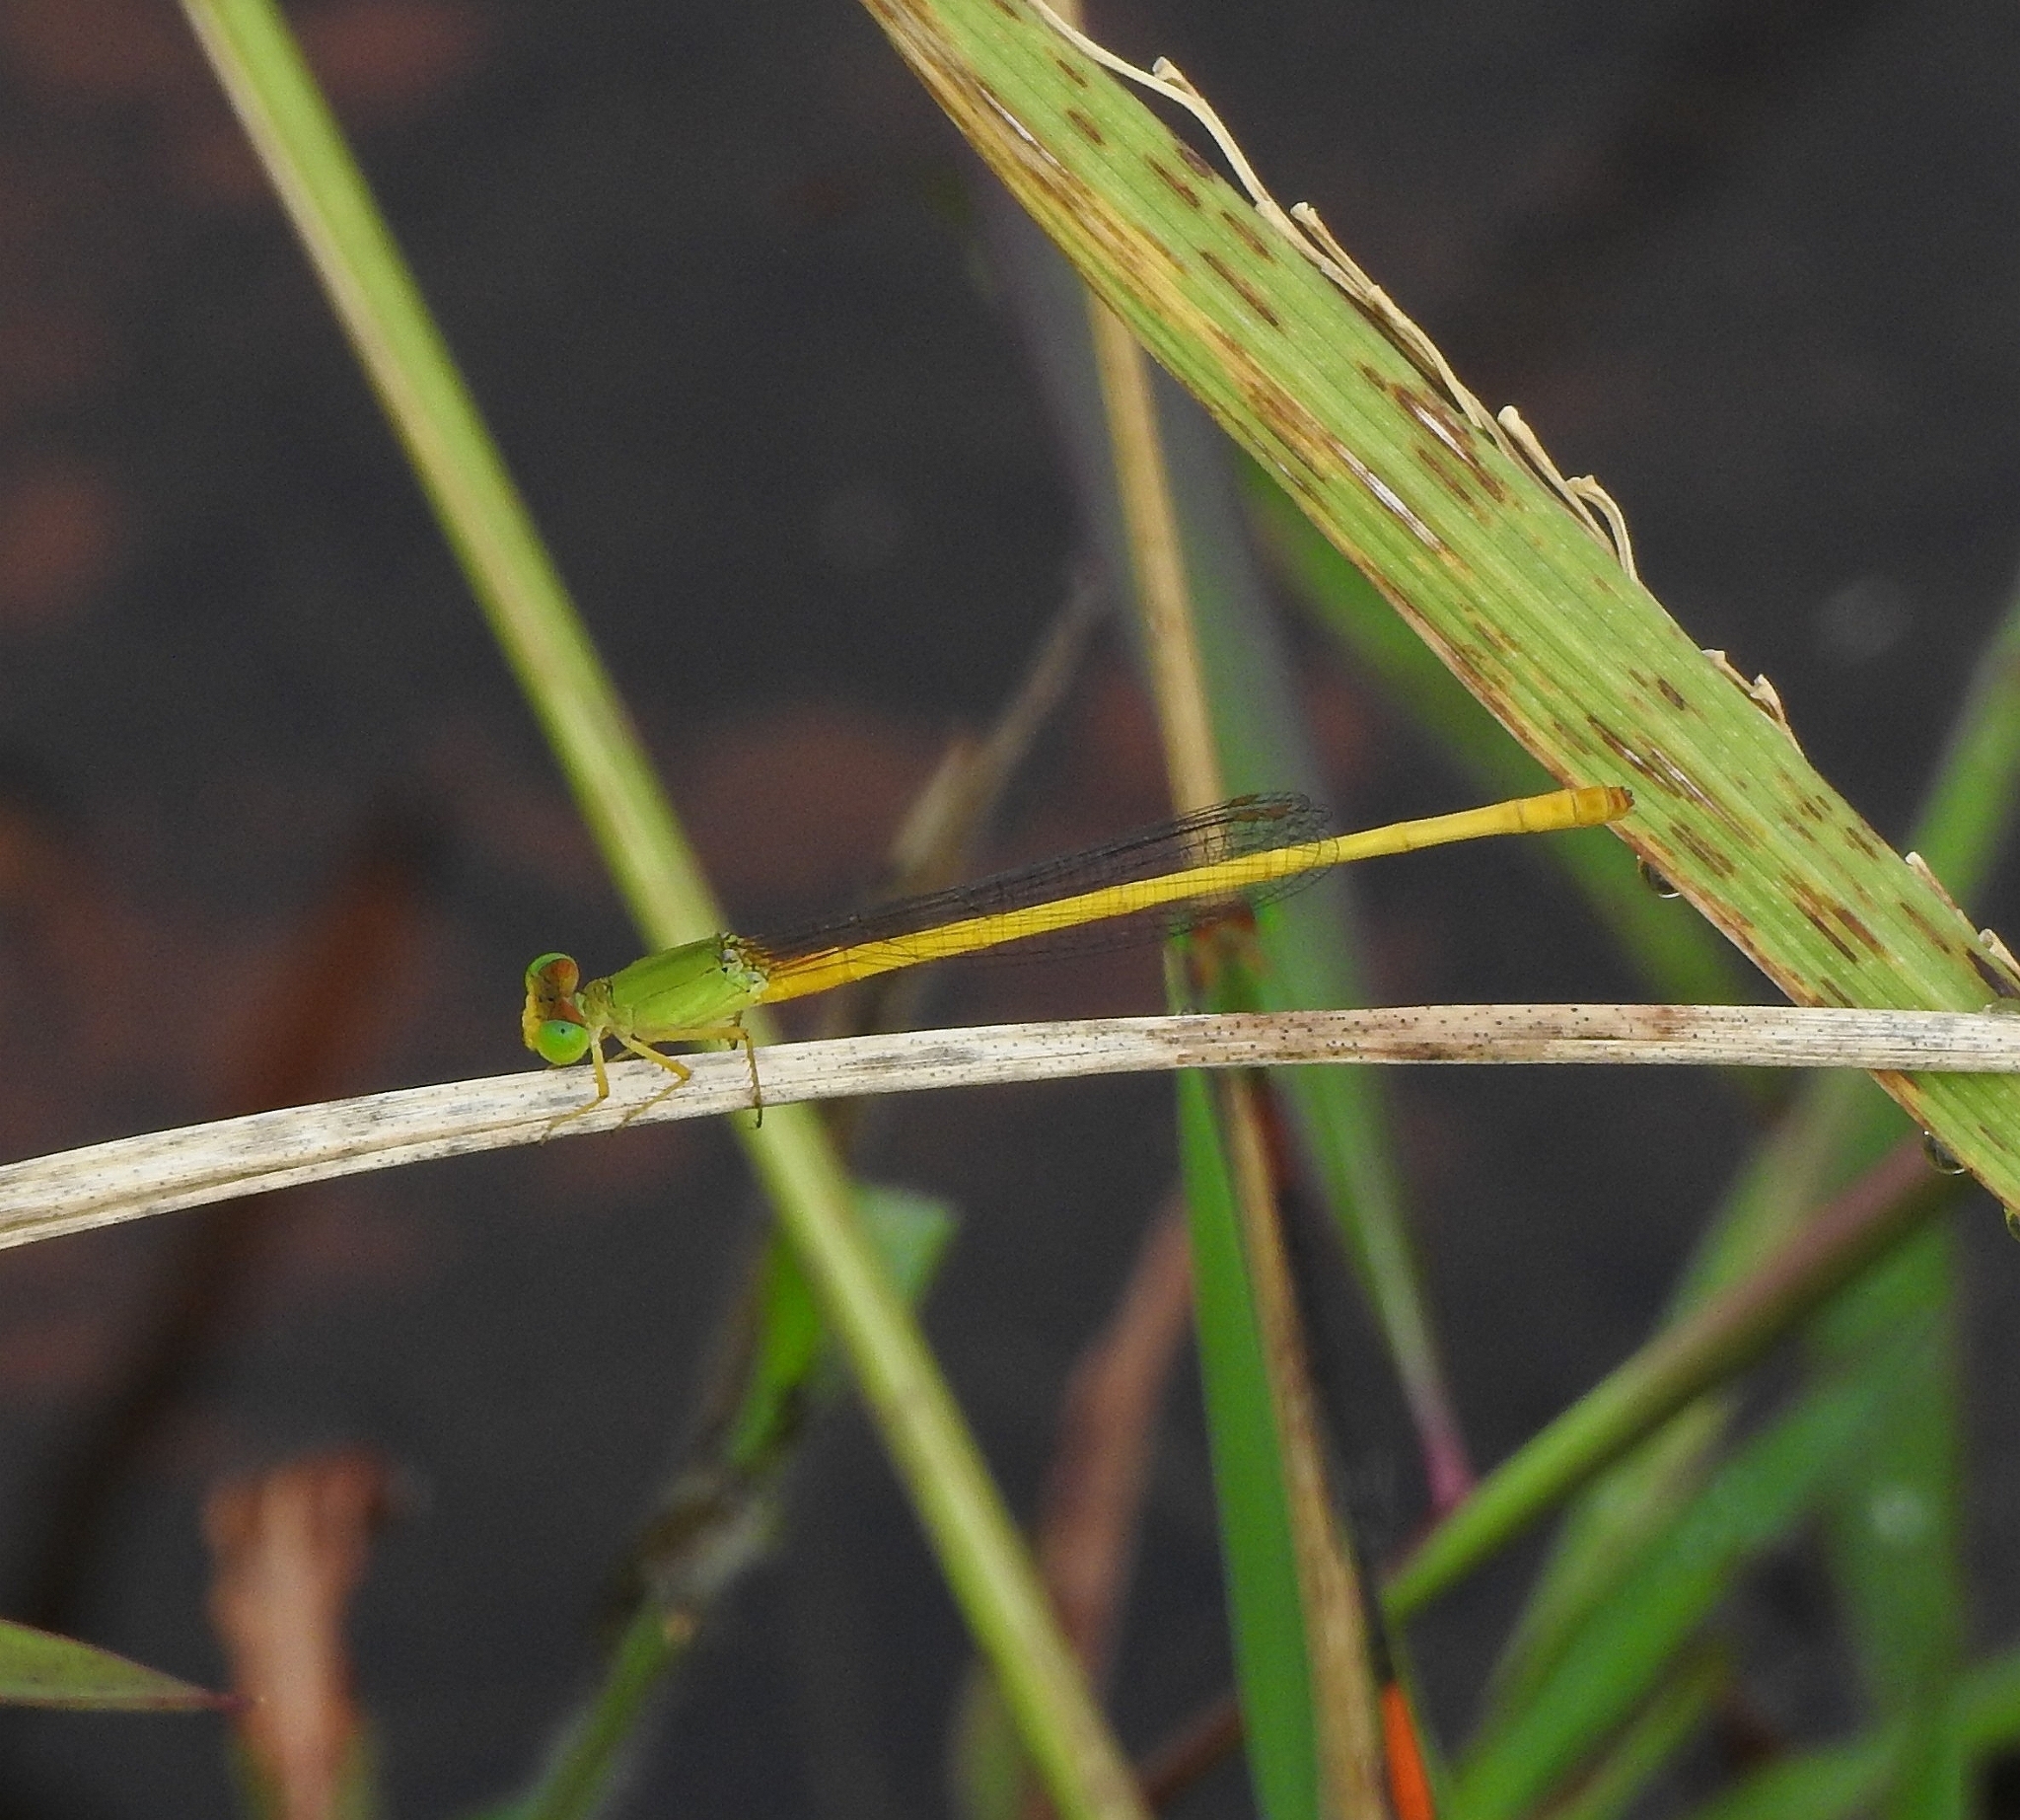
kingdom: Animalia
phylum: Arthropoda
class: Insecta
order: Odonata
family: Coenagrionidae
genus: Ceriagrion
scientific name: Ceriagrion coromandelianum
